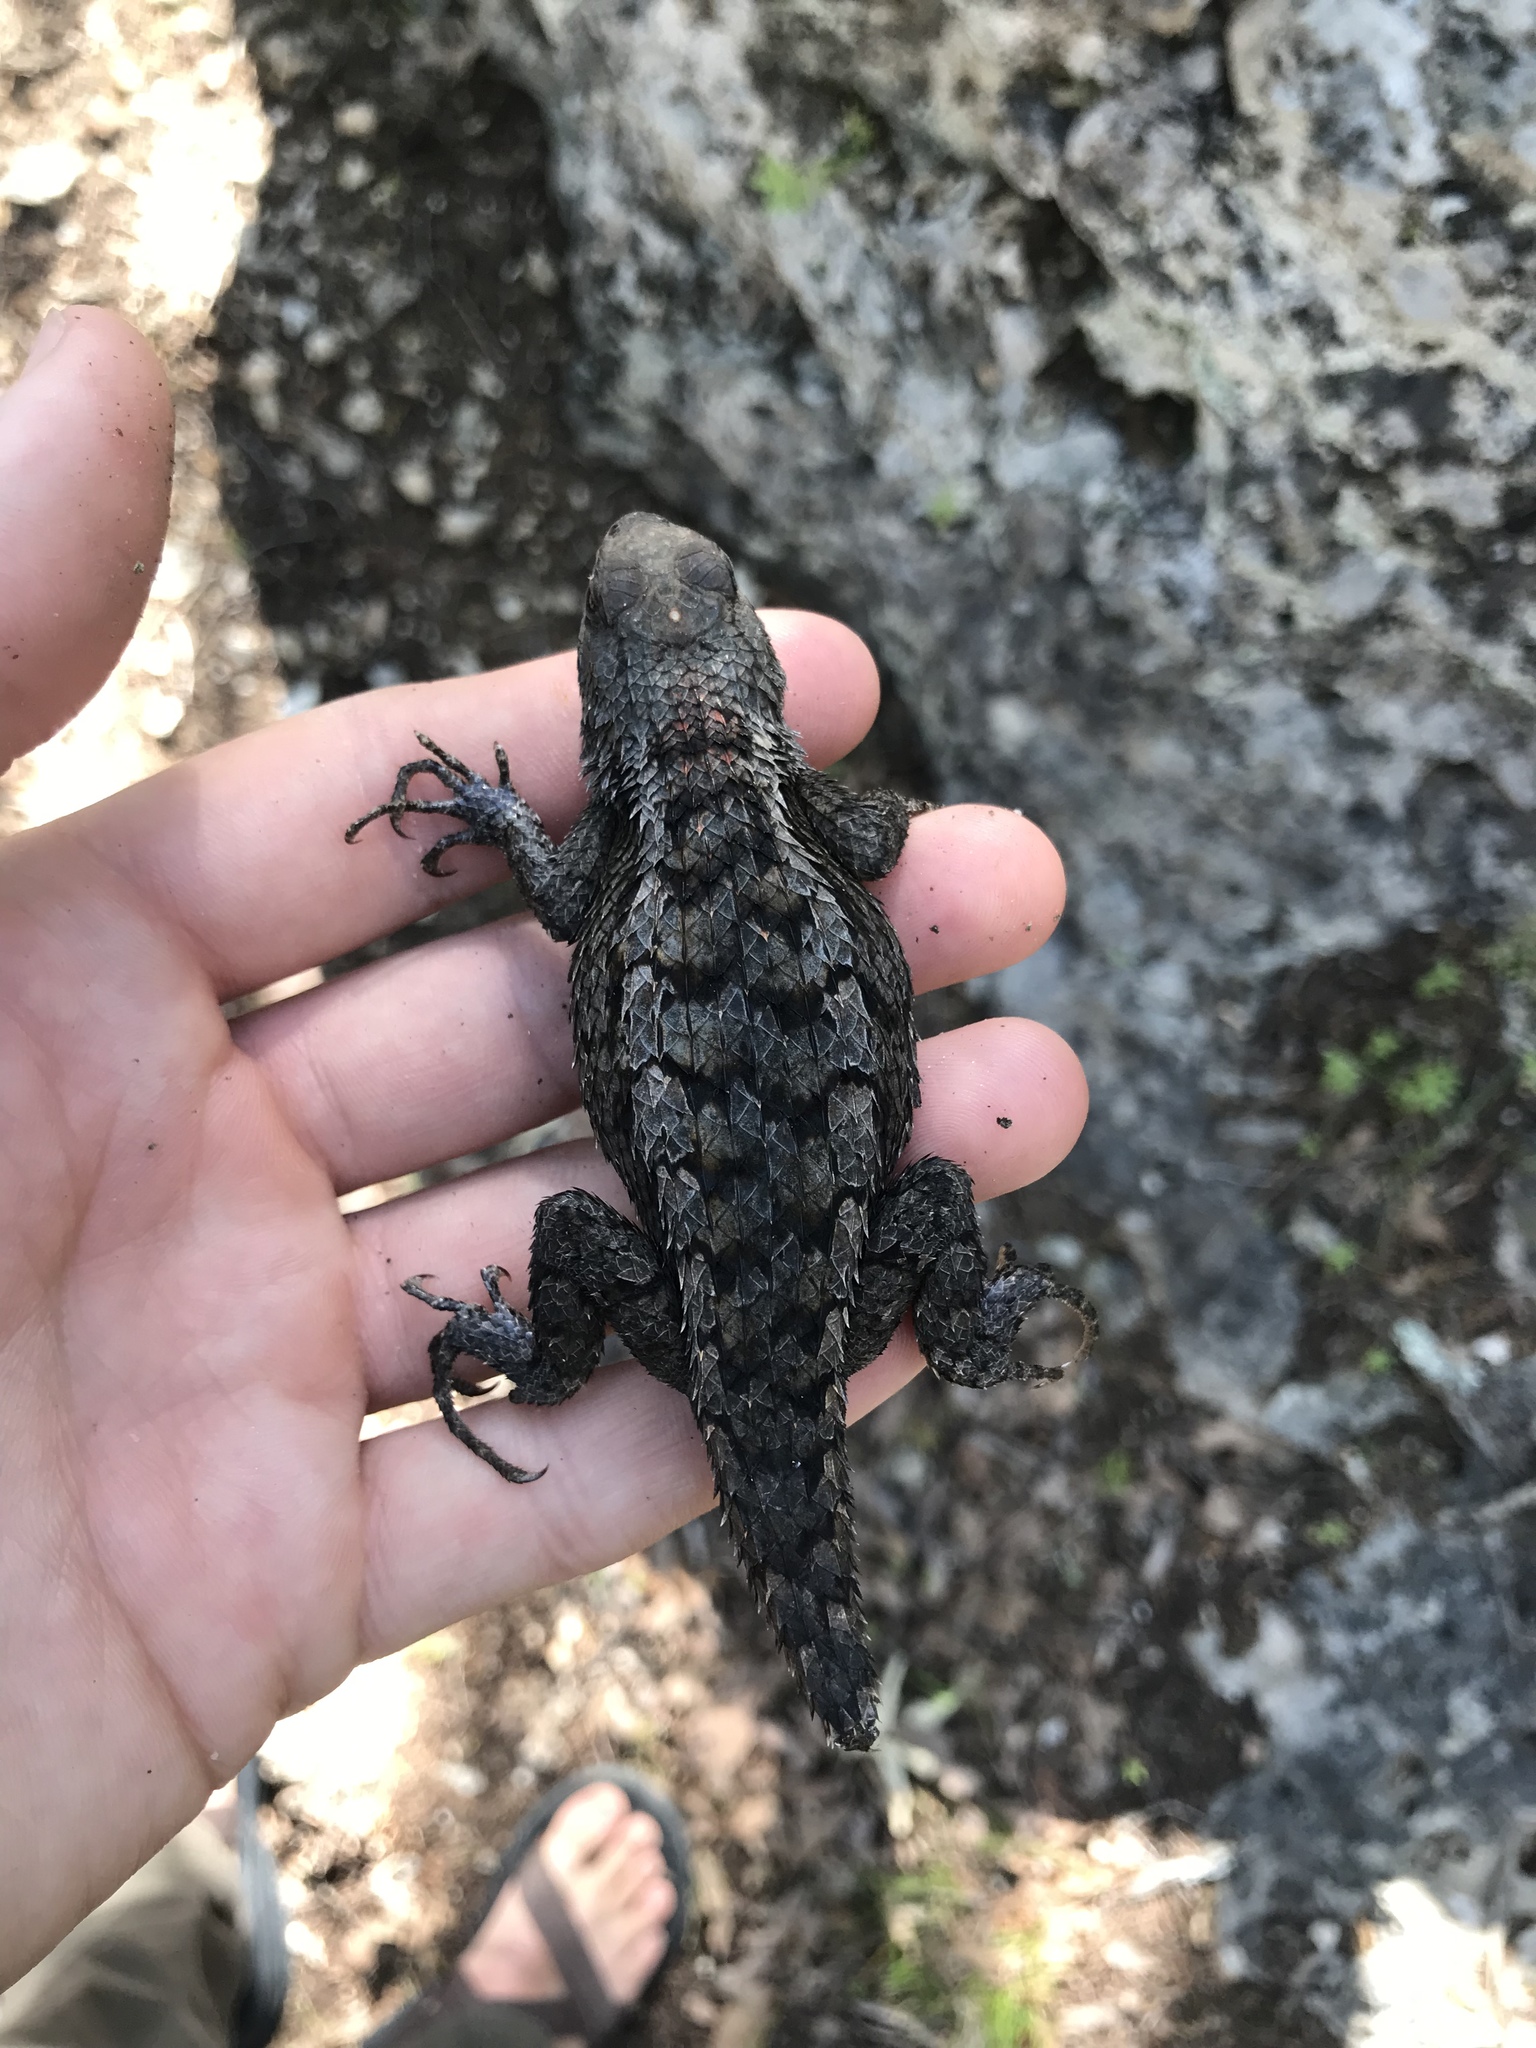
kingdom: Animalia
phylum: Chordata
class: Squamata
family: Phrynosomatidae
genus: Sceloporus
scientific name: Sceloporus olivaceus
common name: Texas spiny lizard
